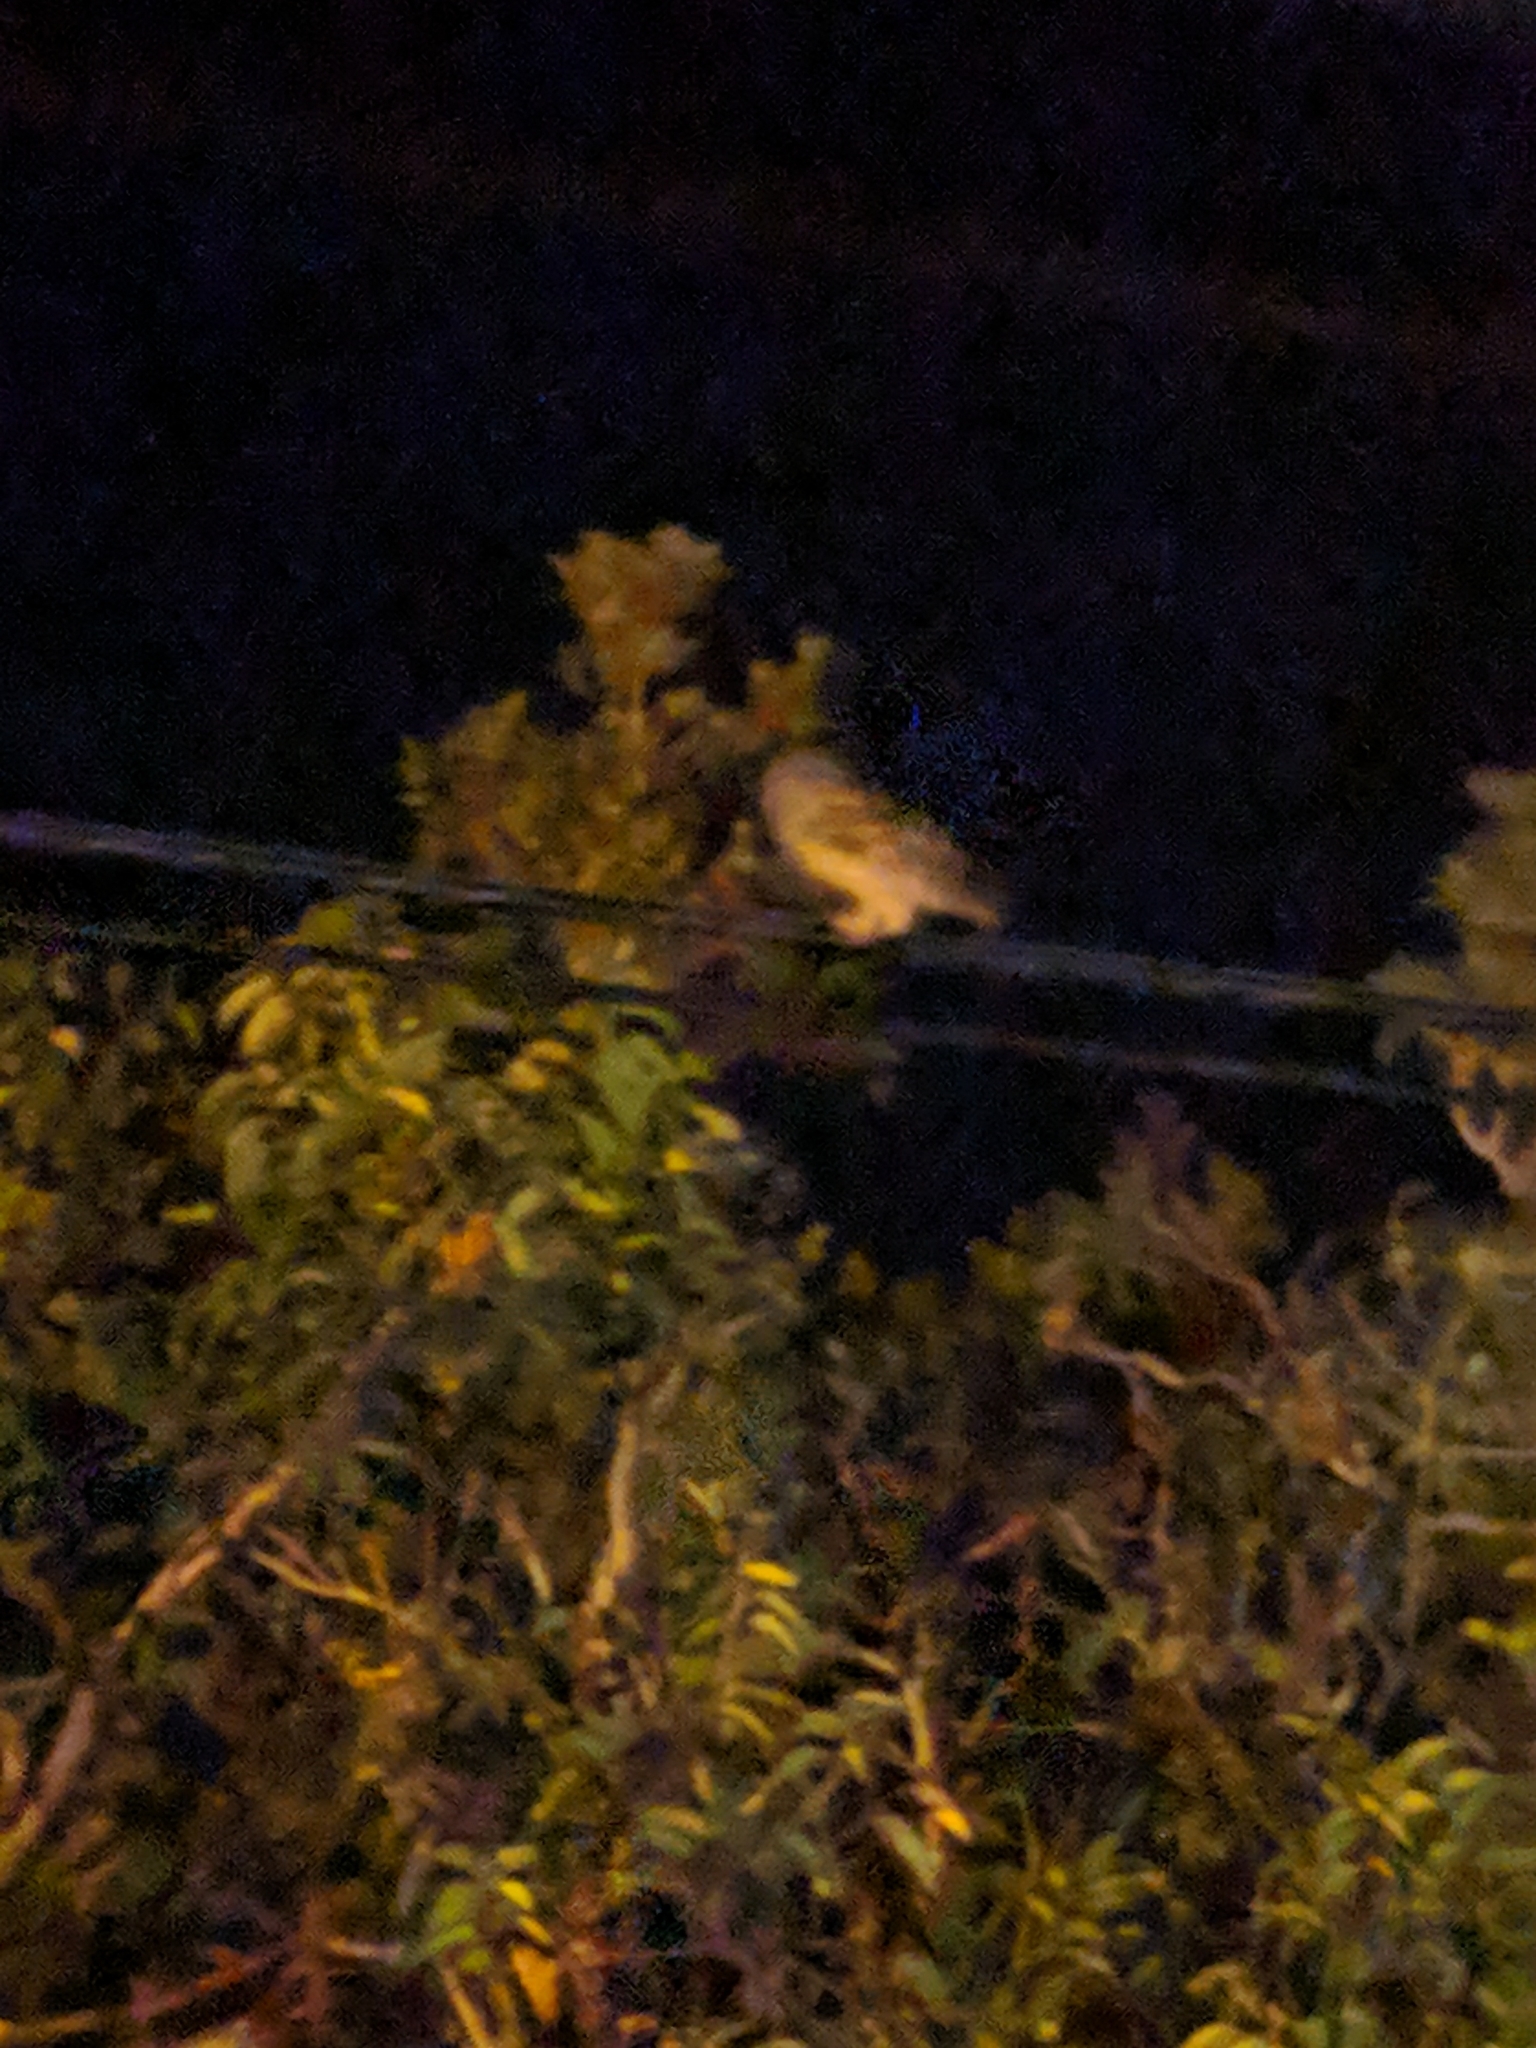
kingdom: Animalia
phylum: Chordata
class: Aves
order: Strigiformes
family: Strigidae
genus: Strix
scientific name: Strix varia
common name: Barred owl
